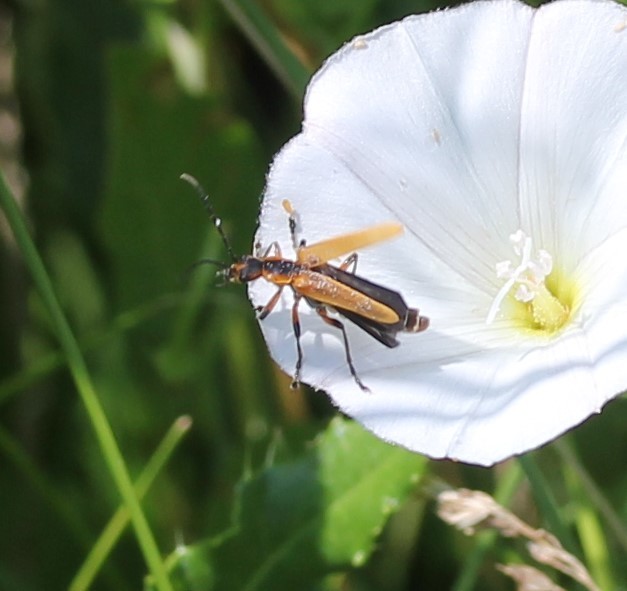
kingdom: Animalia
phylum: Arthropoda
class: Insecta
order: Coleoptera
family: Cantharidae
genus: Chauliognathus
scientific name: Chauliognathus marginatus
